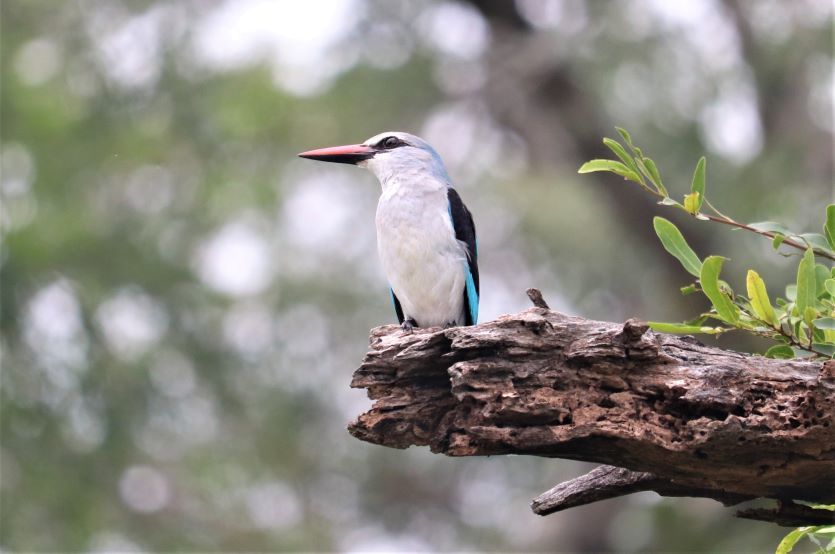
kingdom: Animalia
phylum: Chordata
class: Aves
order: Coraciiformes
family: Alcedinidae
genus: Halcyon
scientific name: Halcyon senegalensis
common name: Woodland kingfisher
